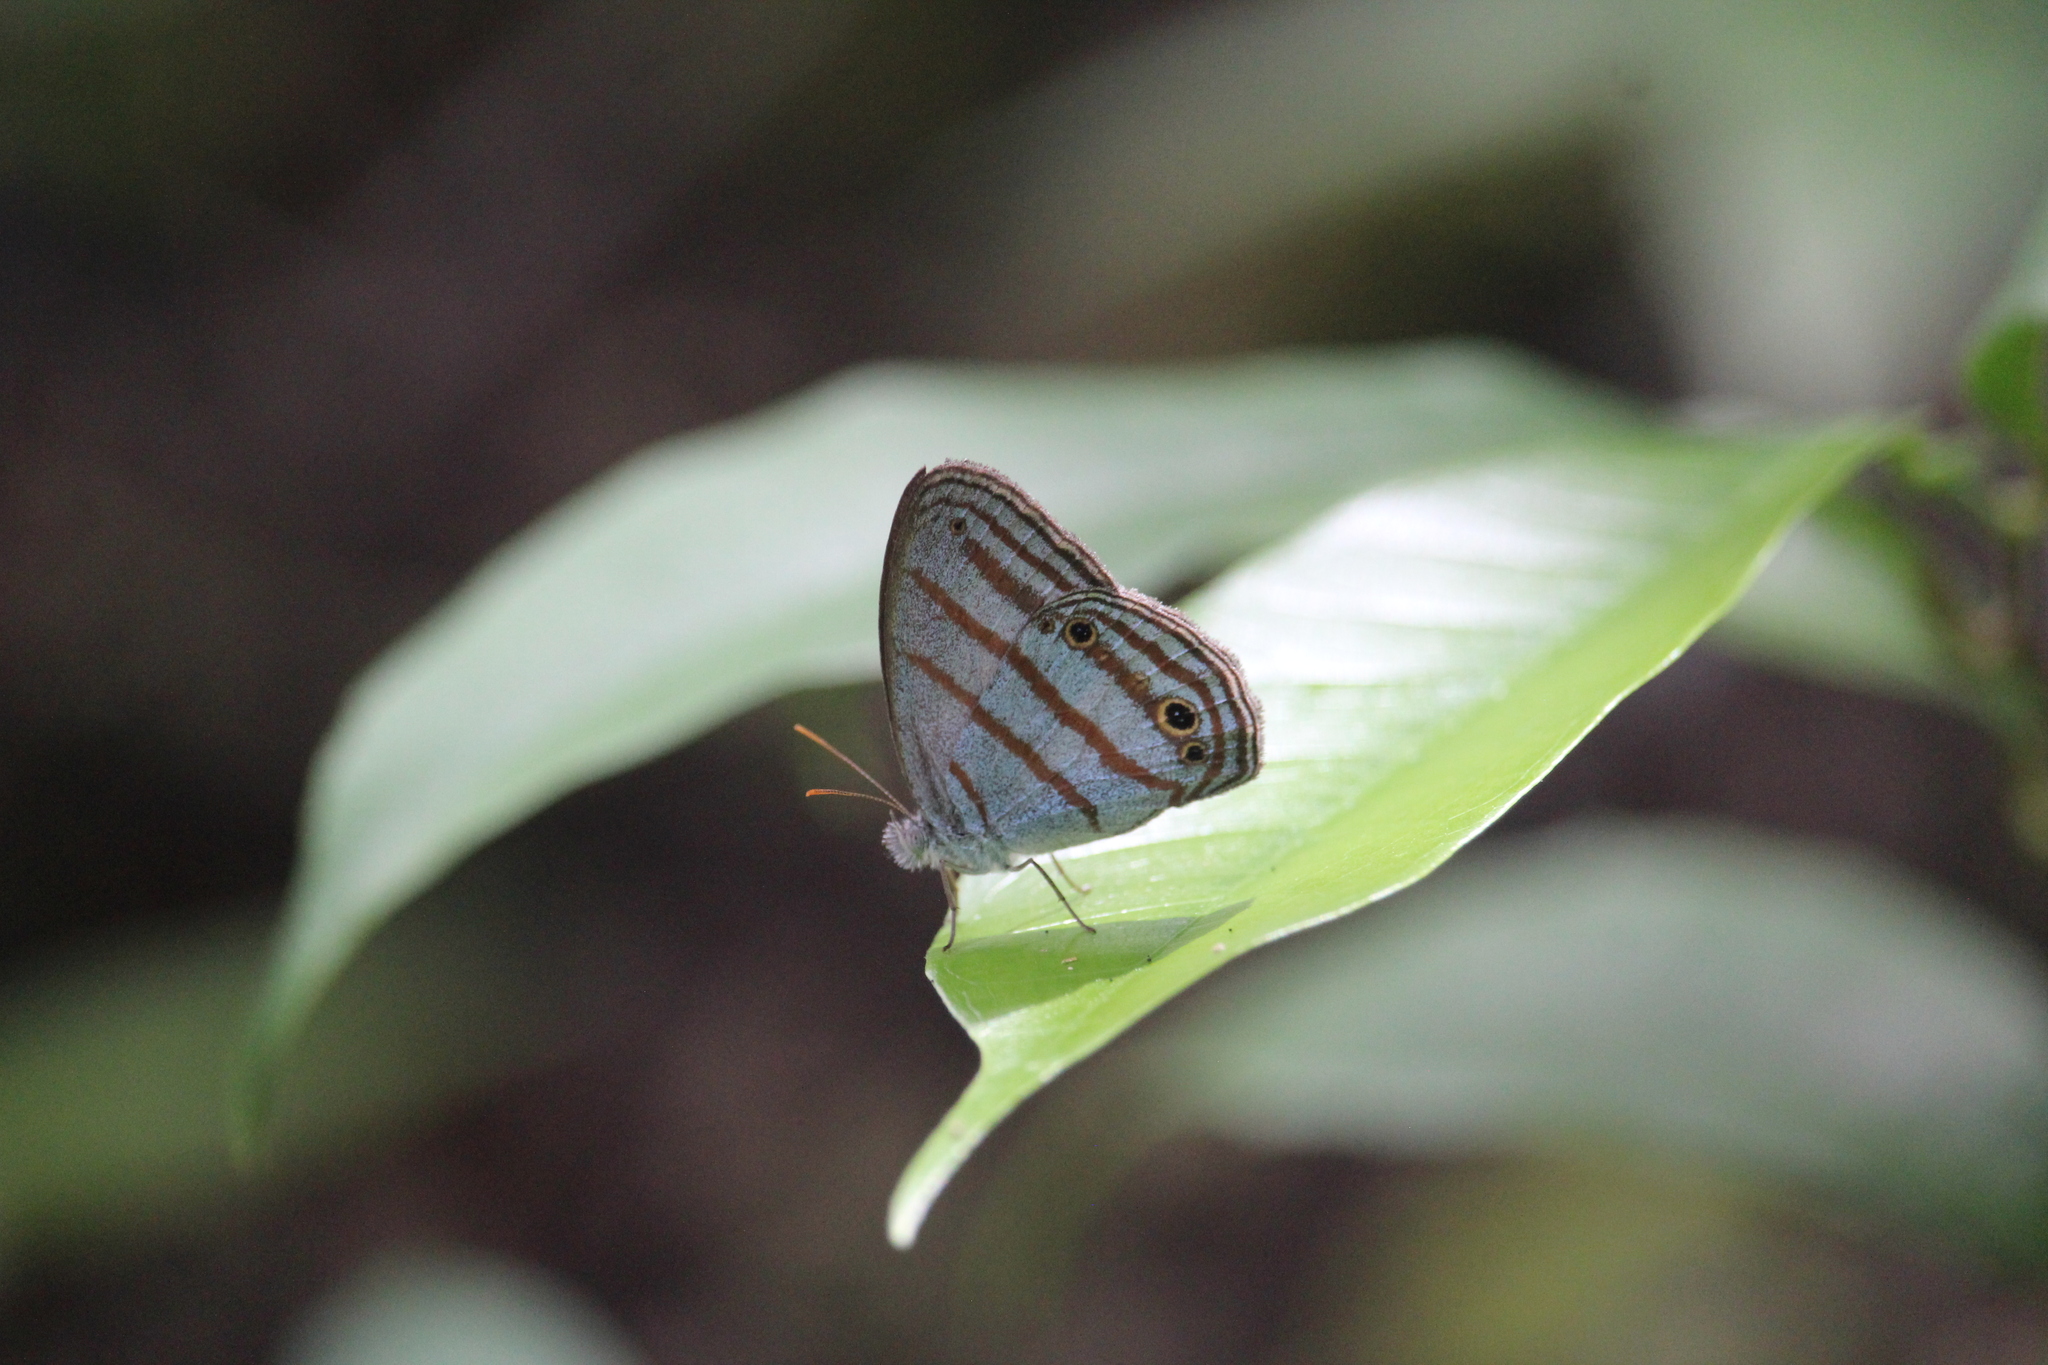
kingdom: Animalia
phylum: Arthropoda
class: Insecta
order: Lepidoptera
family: Nymphalidae
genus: Cepheuptychia
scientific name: Cepheuptychia glaucina
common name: Dirty-blue satyr
